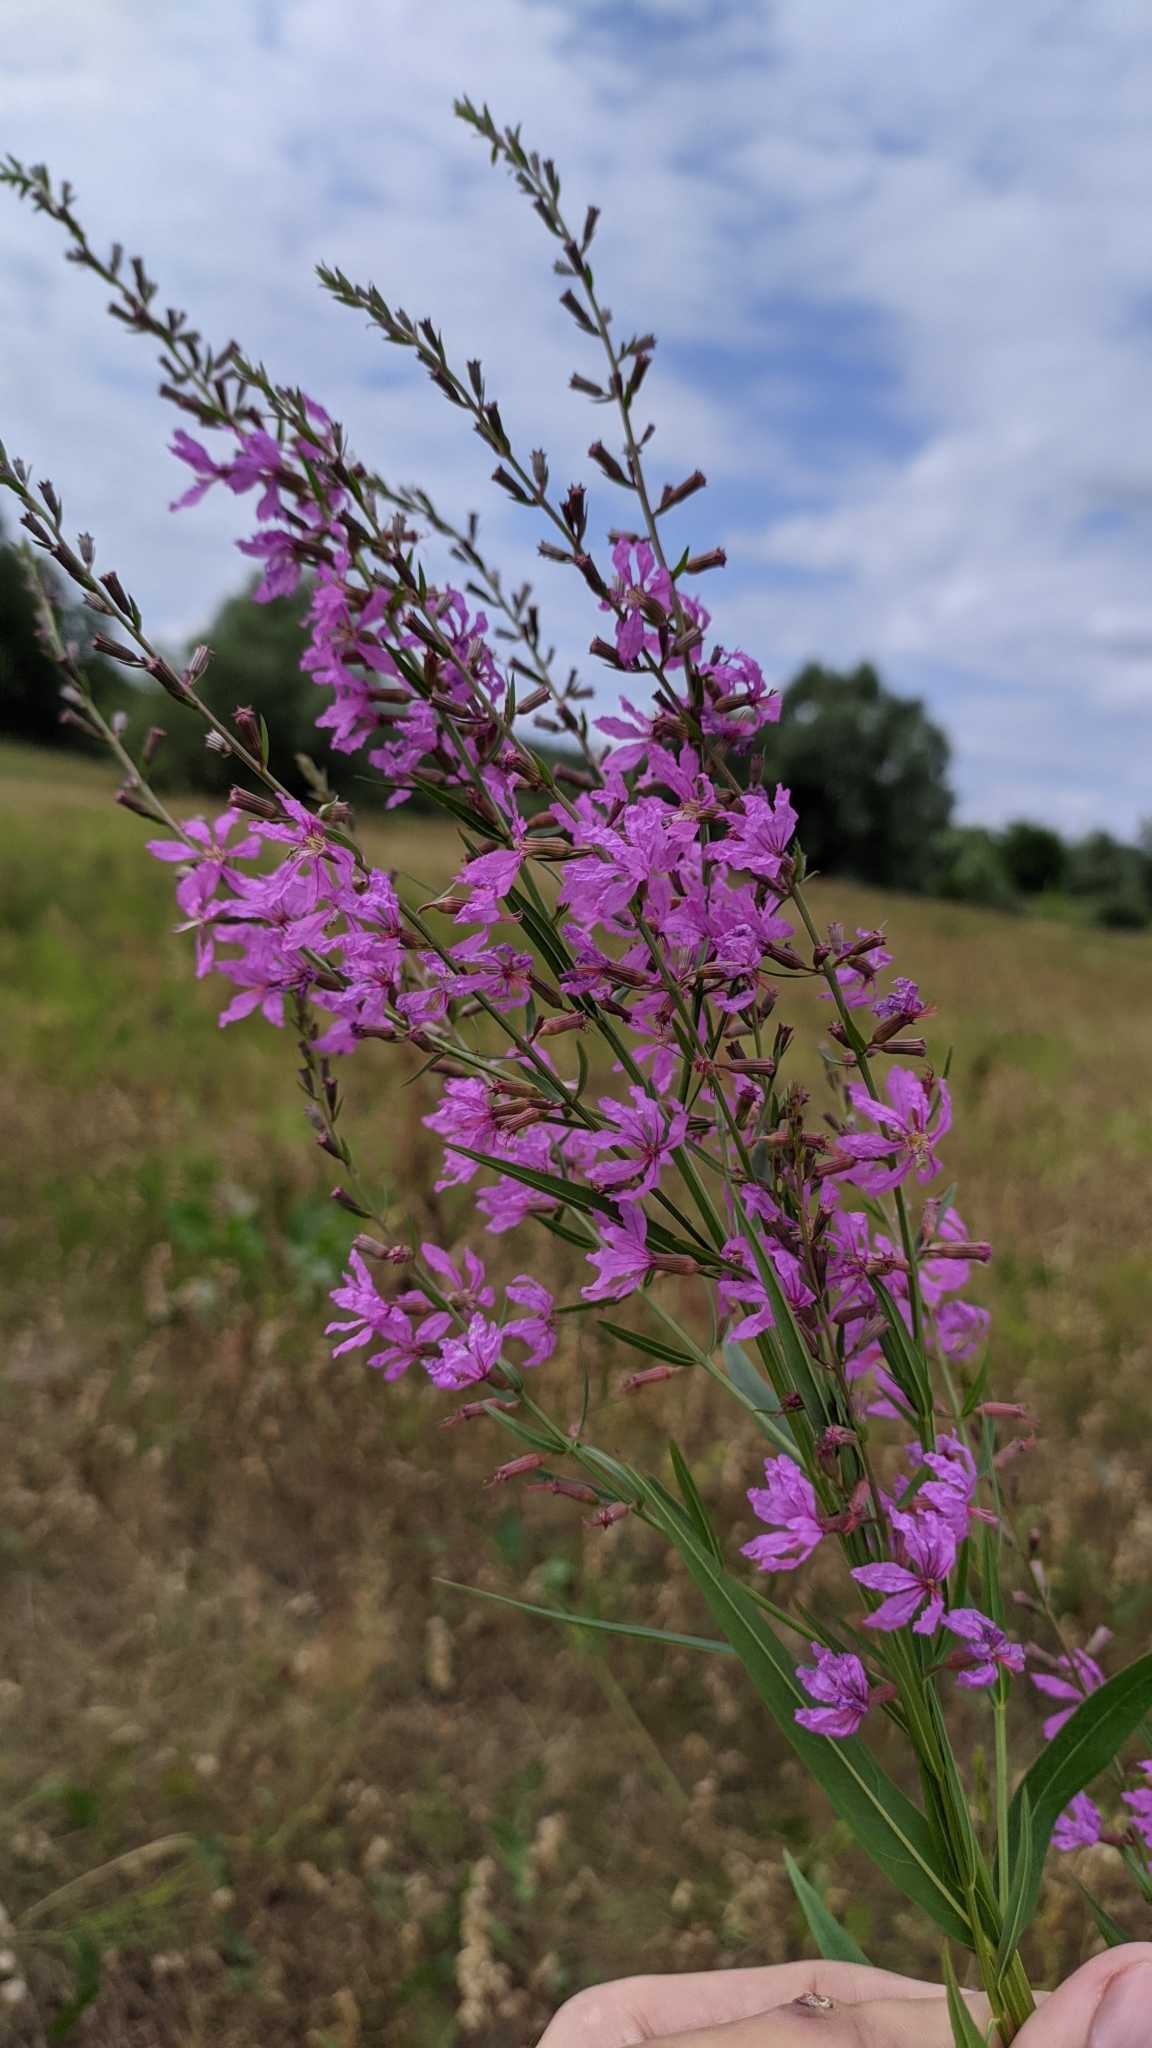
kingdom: Plantae
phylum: Tracheophyta
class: Magnoliopsida
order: Myrtales
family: Lythraceae
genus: Lythrum
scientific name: Lythrum virgatum
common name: European wand loosestrife
